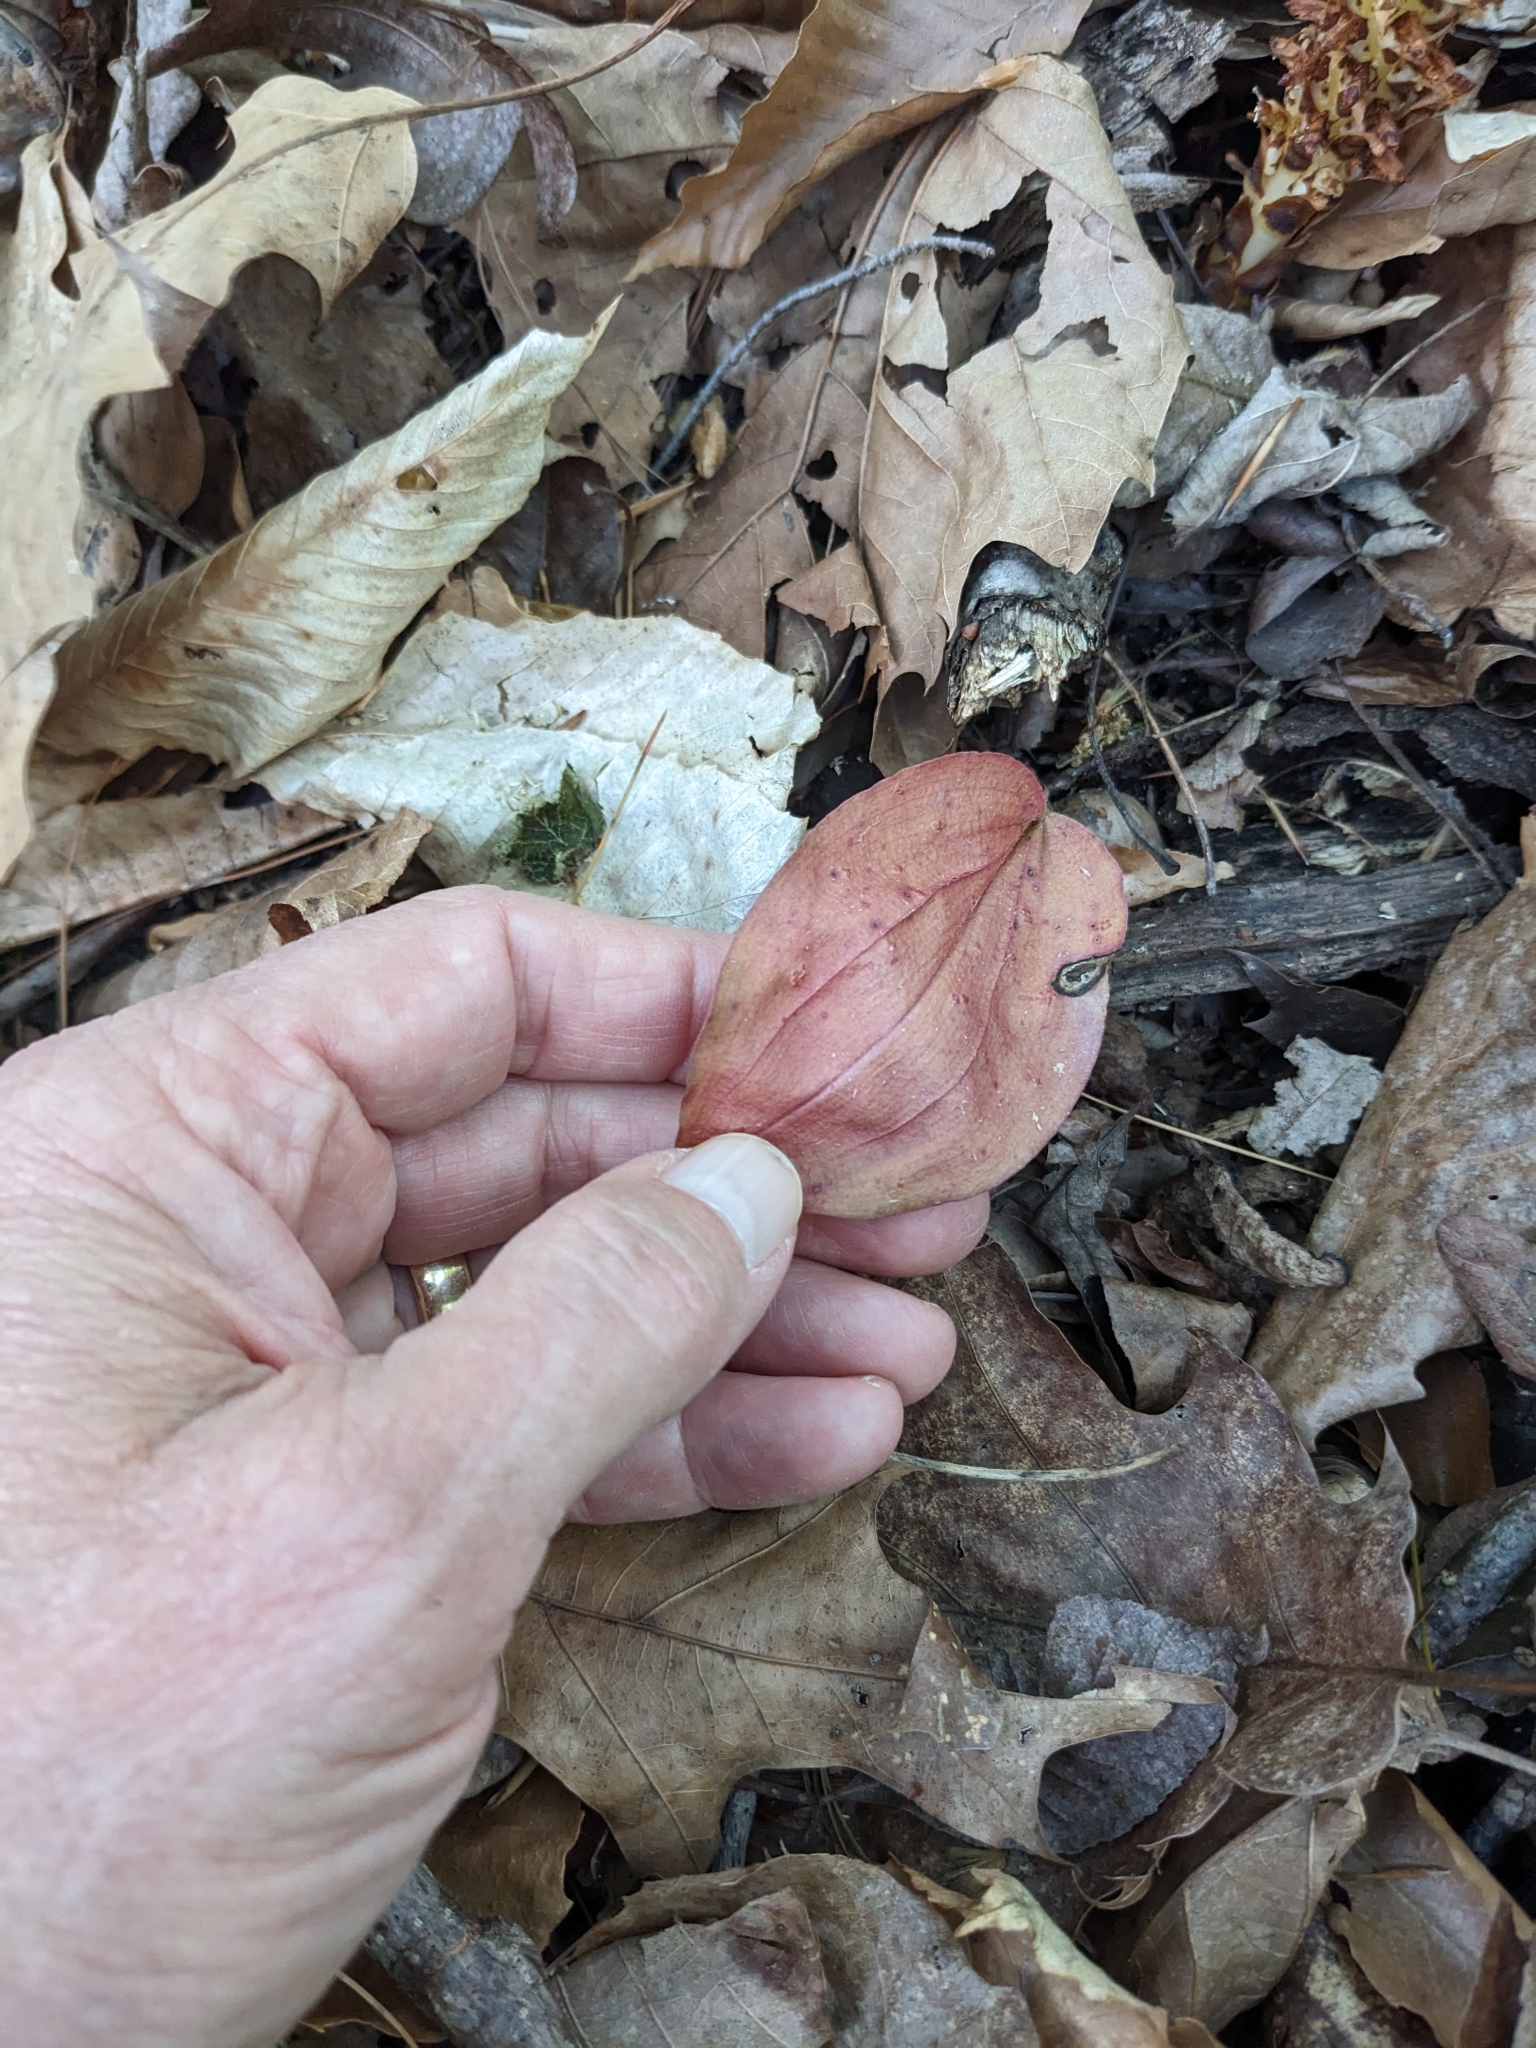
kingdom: Plantae
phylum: Tracheophyta
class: Liliopsida
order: Asparagales
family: Orchidaceae
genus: Tipularia
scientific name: Tipularia discolor
